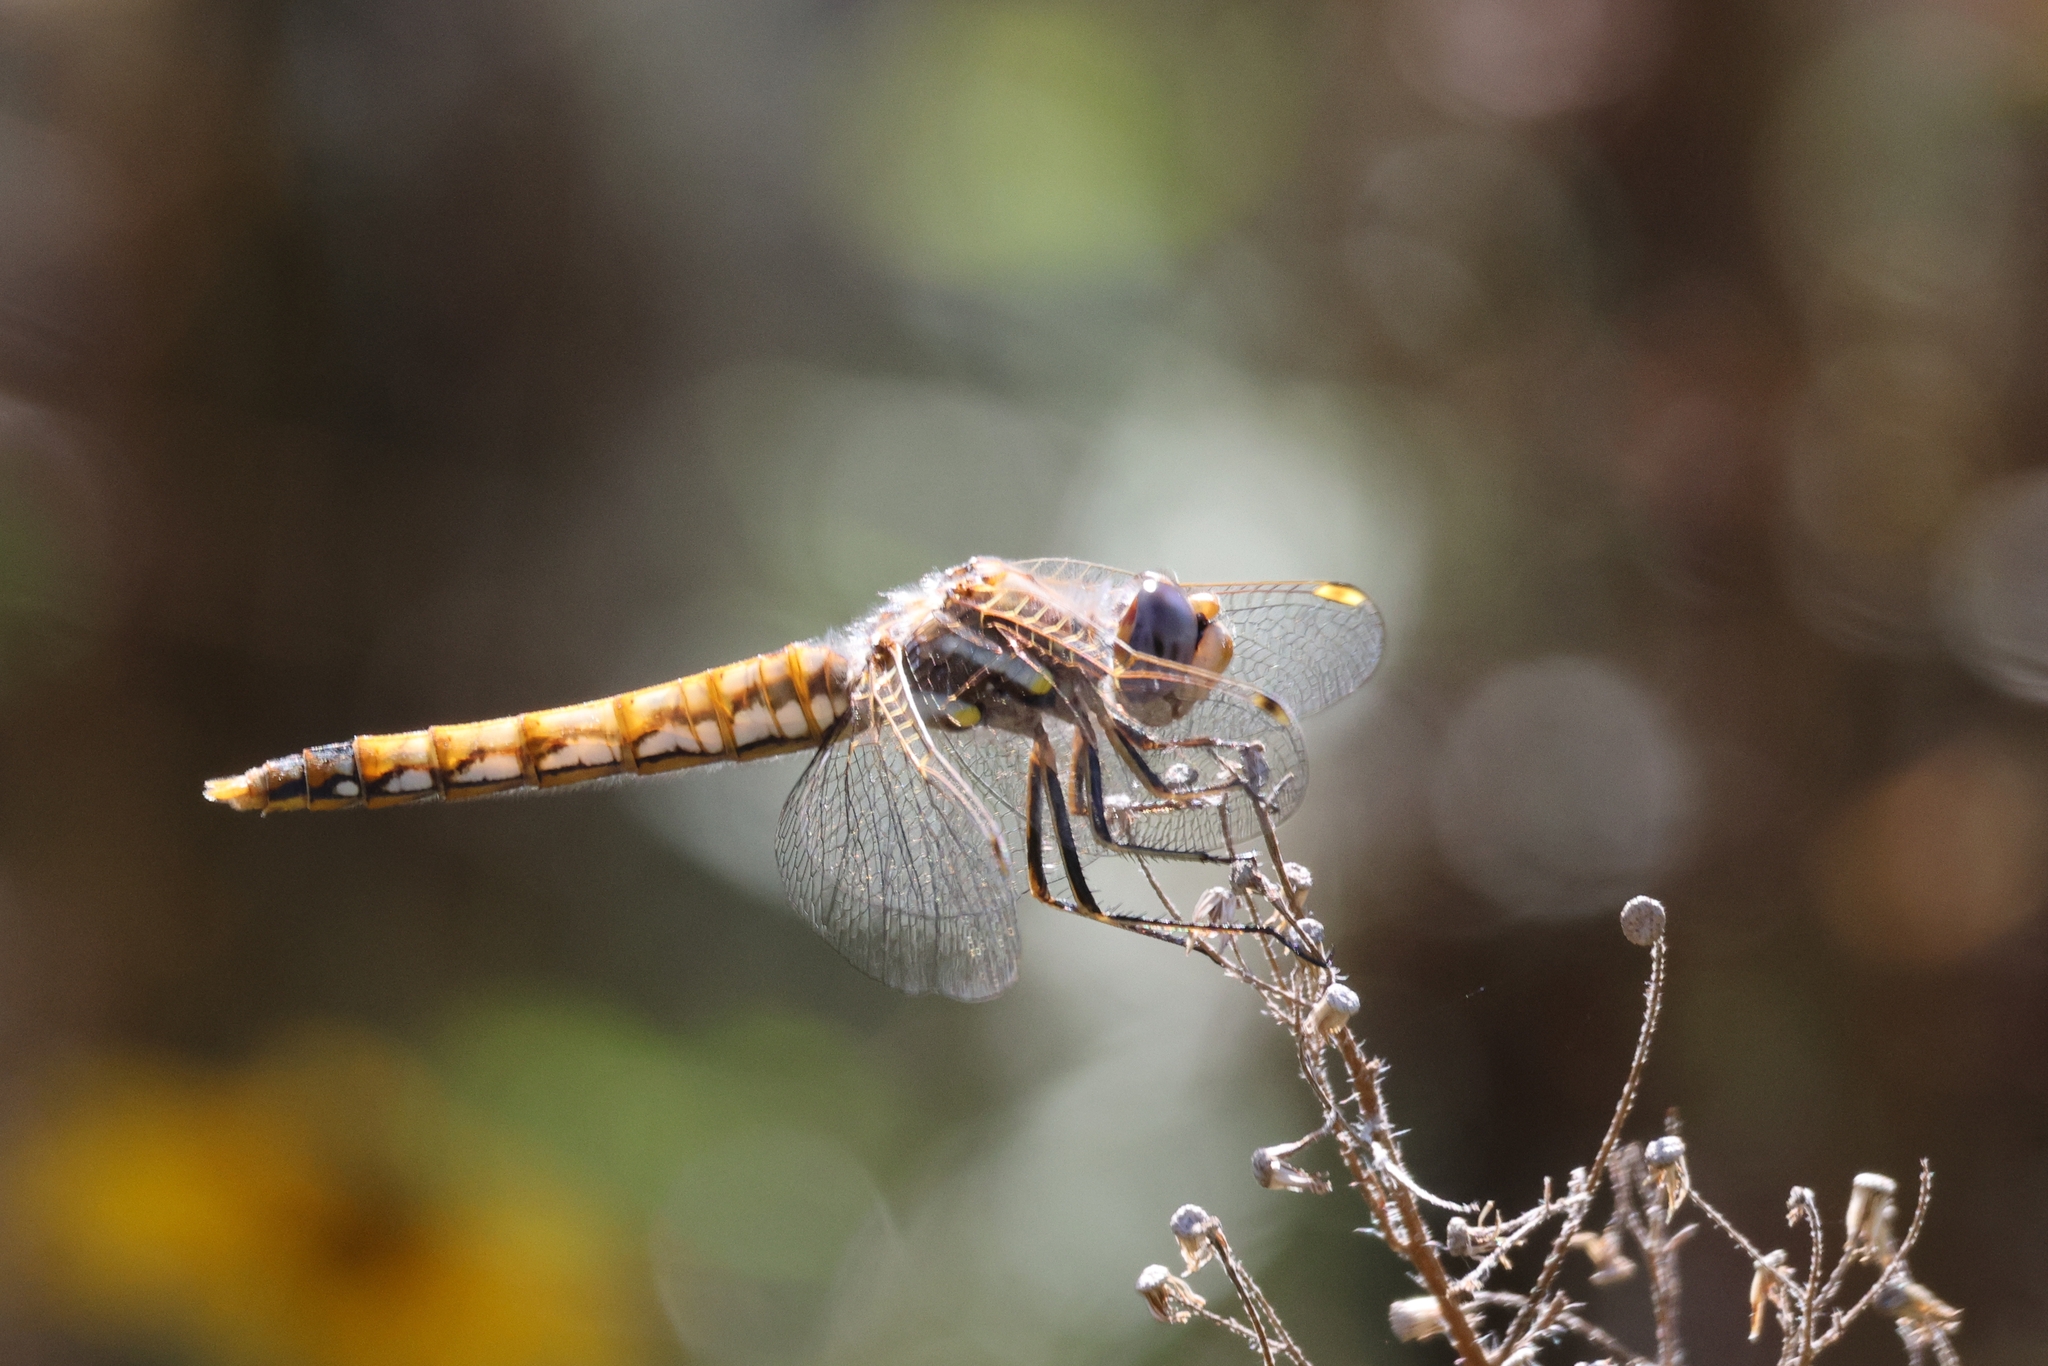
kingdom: Animalia
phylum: Arthropoda
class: Insecta
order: Odonata
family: Libellulidae
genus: Sympetrum
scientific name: Sympetrum corruptum
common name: Variegated meadowhawk
